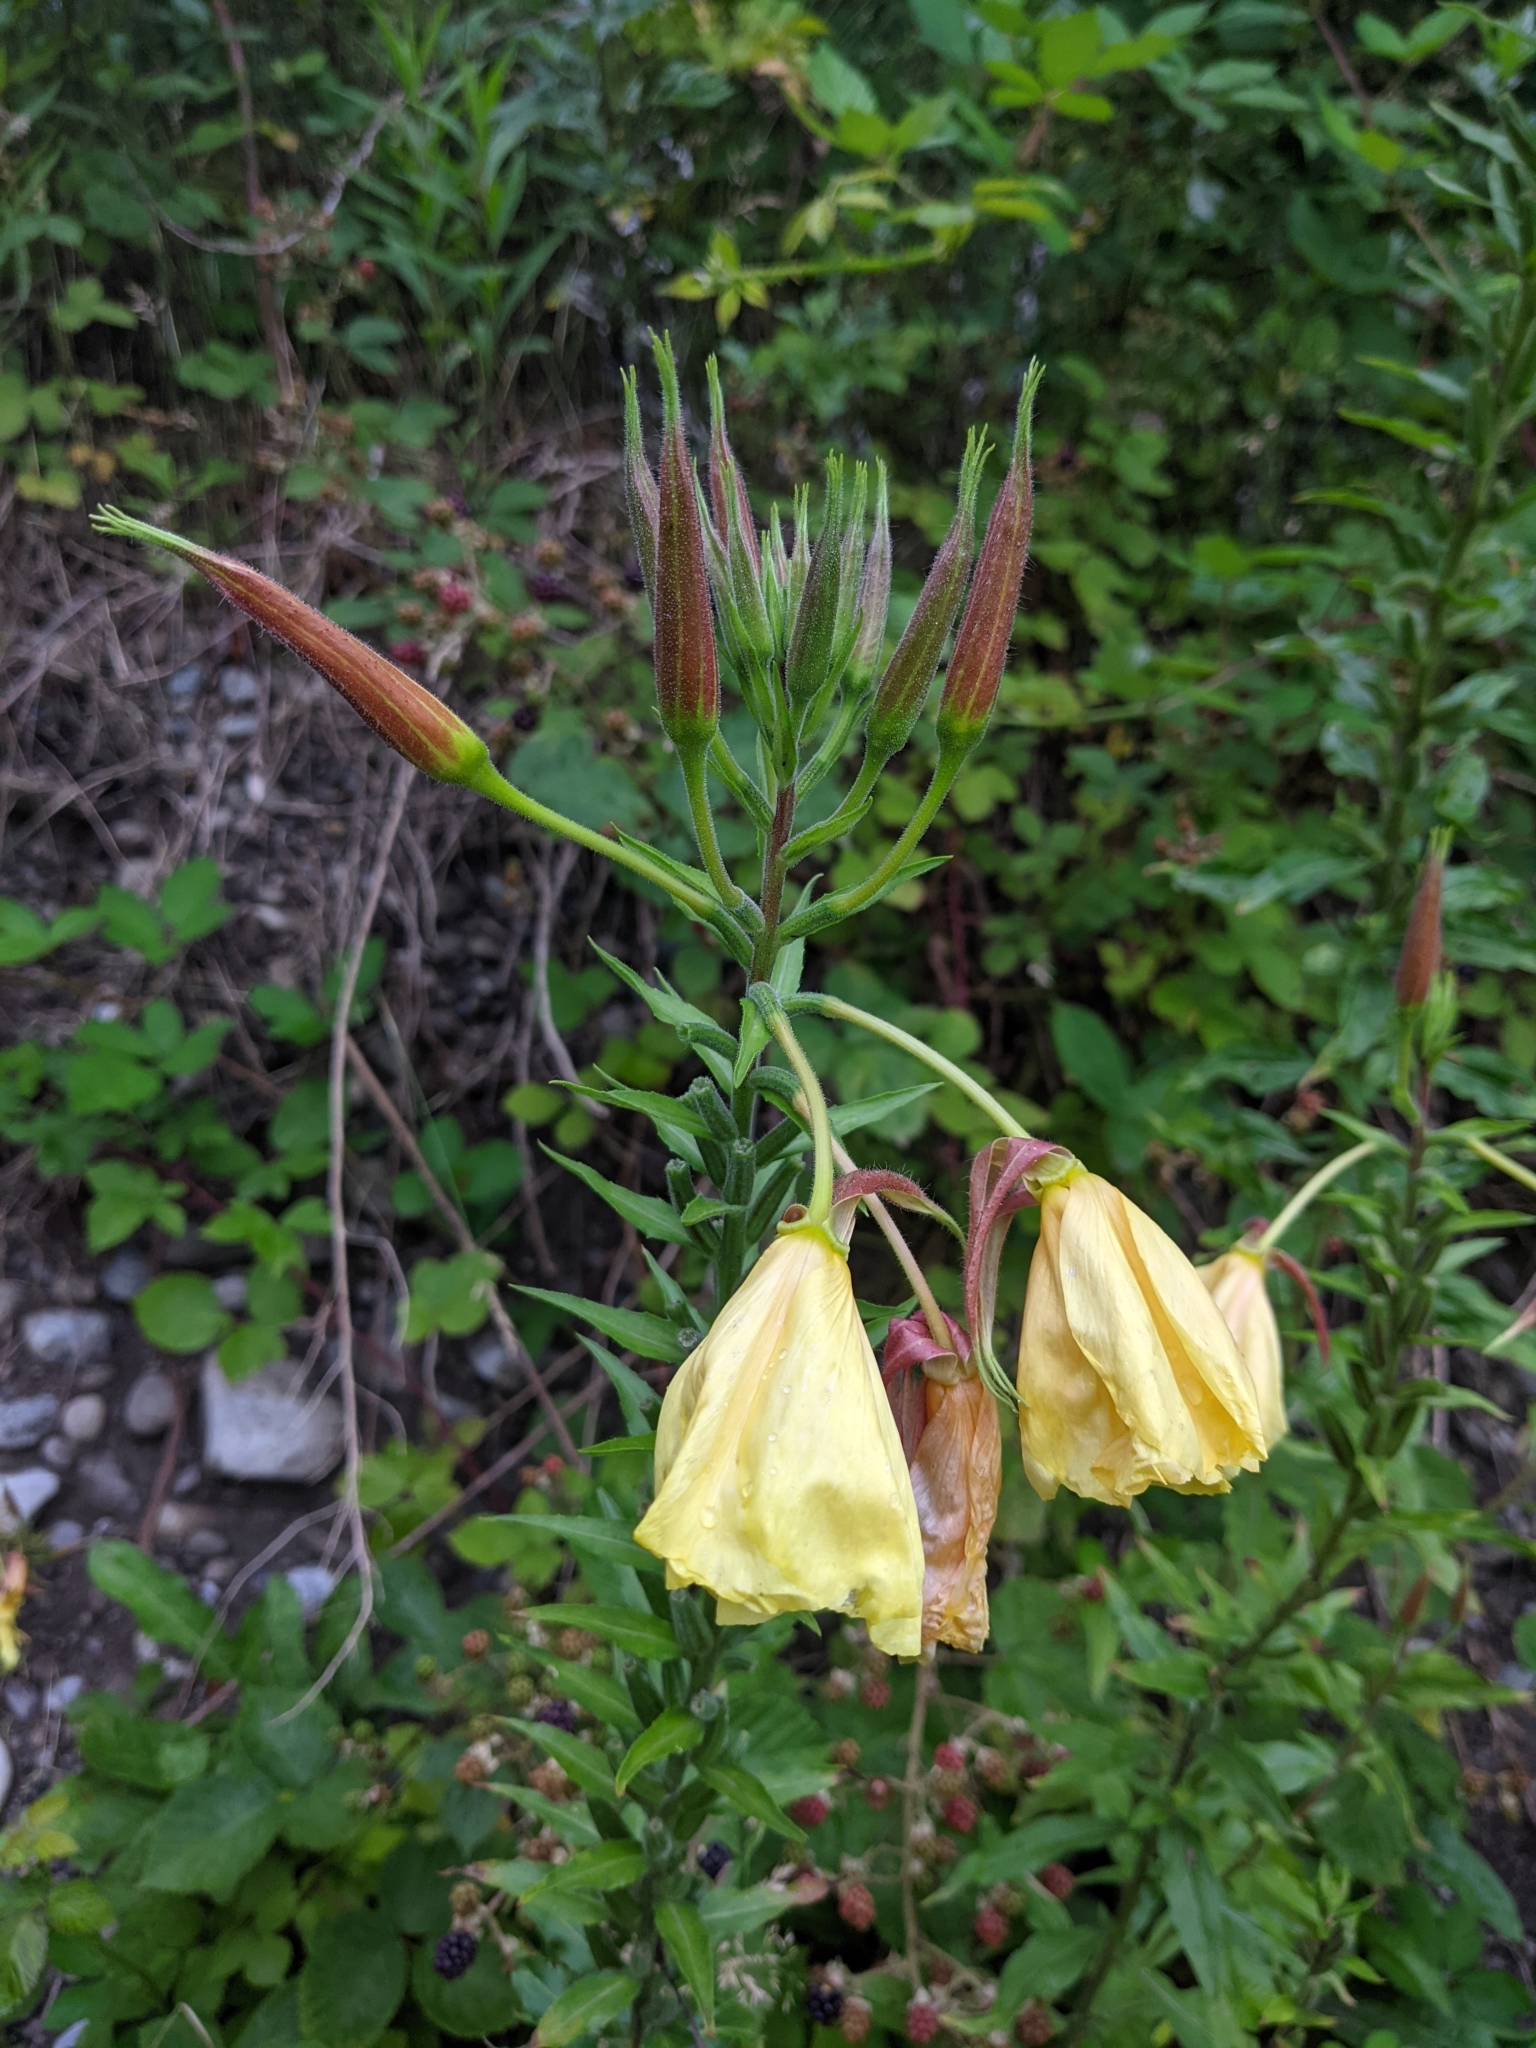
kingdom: Plantae
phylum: Tracheophyta
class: Magnoliopsida
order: Myrtales
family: Onagraceae
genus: Oenothera
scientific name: Oenothera glazioviana
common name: Large-flowered evening-primrose
